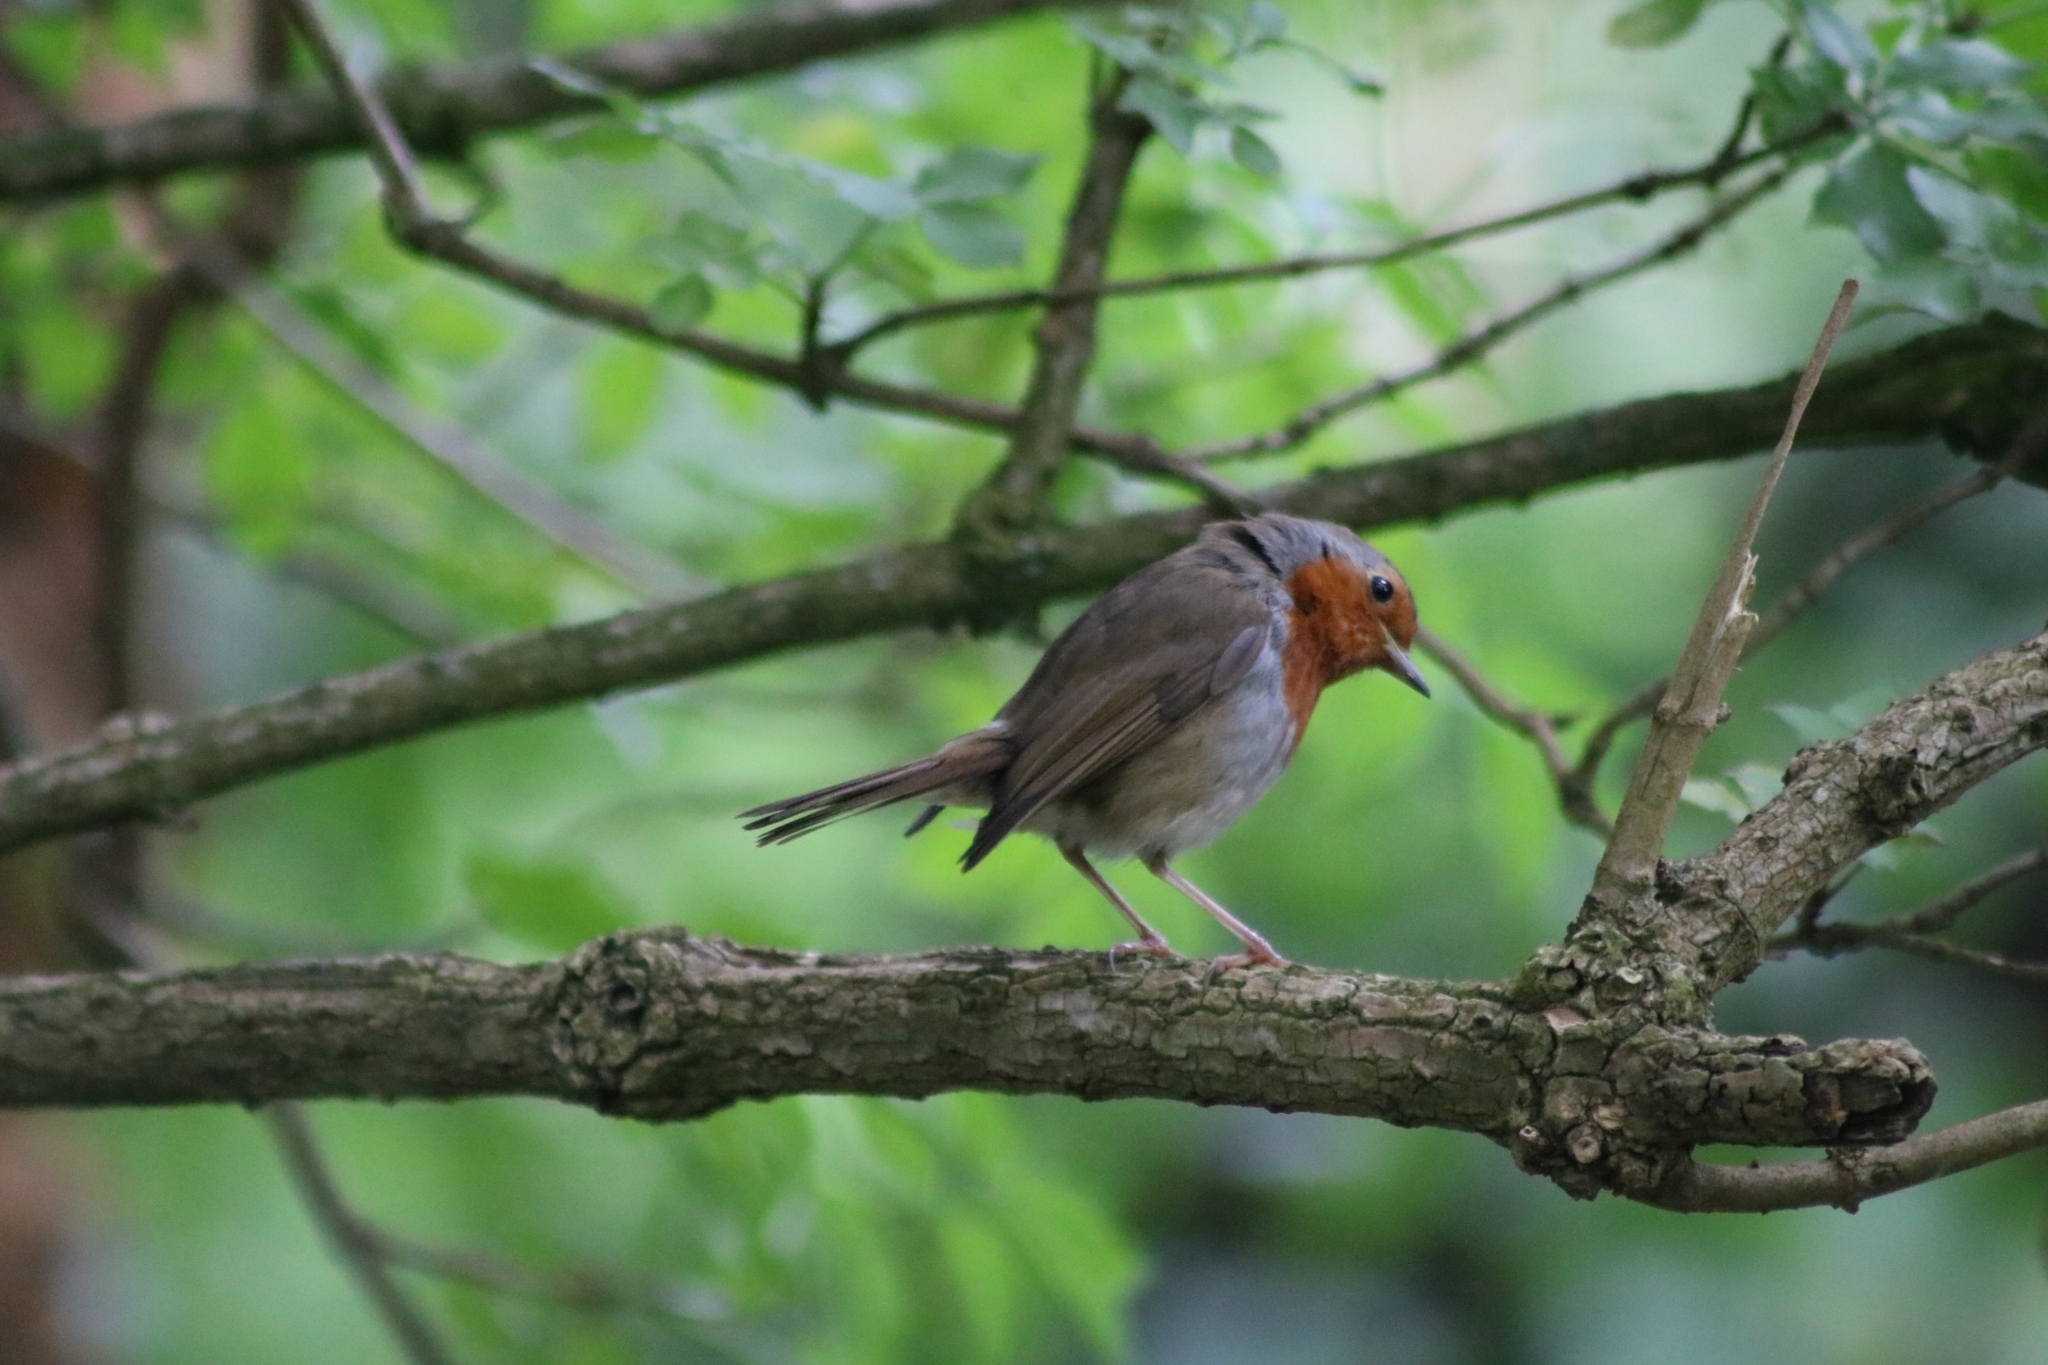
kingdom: Animalia
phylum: Chordata
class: Aves
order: Passeriformes
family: Muscicapidae
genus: Erithacus
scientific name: Erithacus rubecula
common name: European robin
